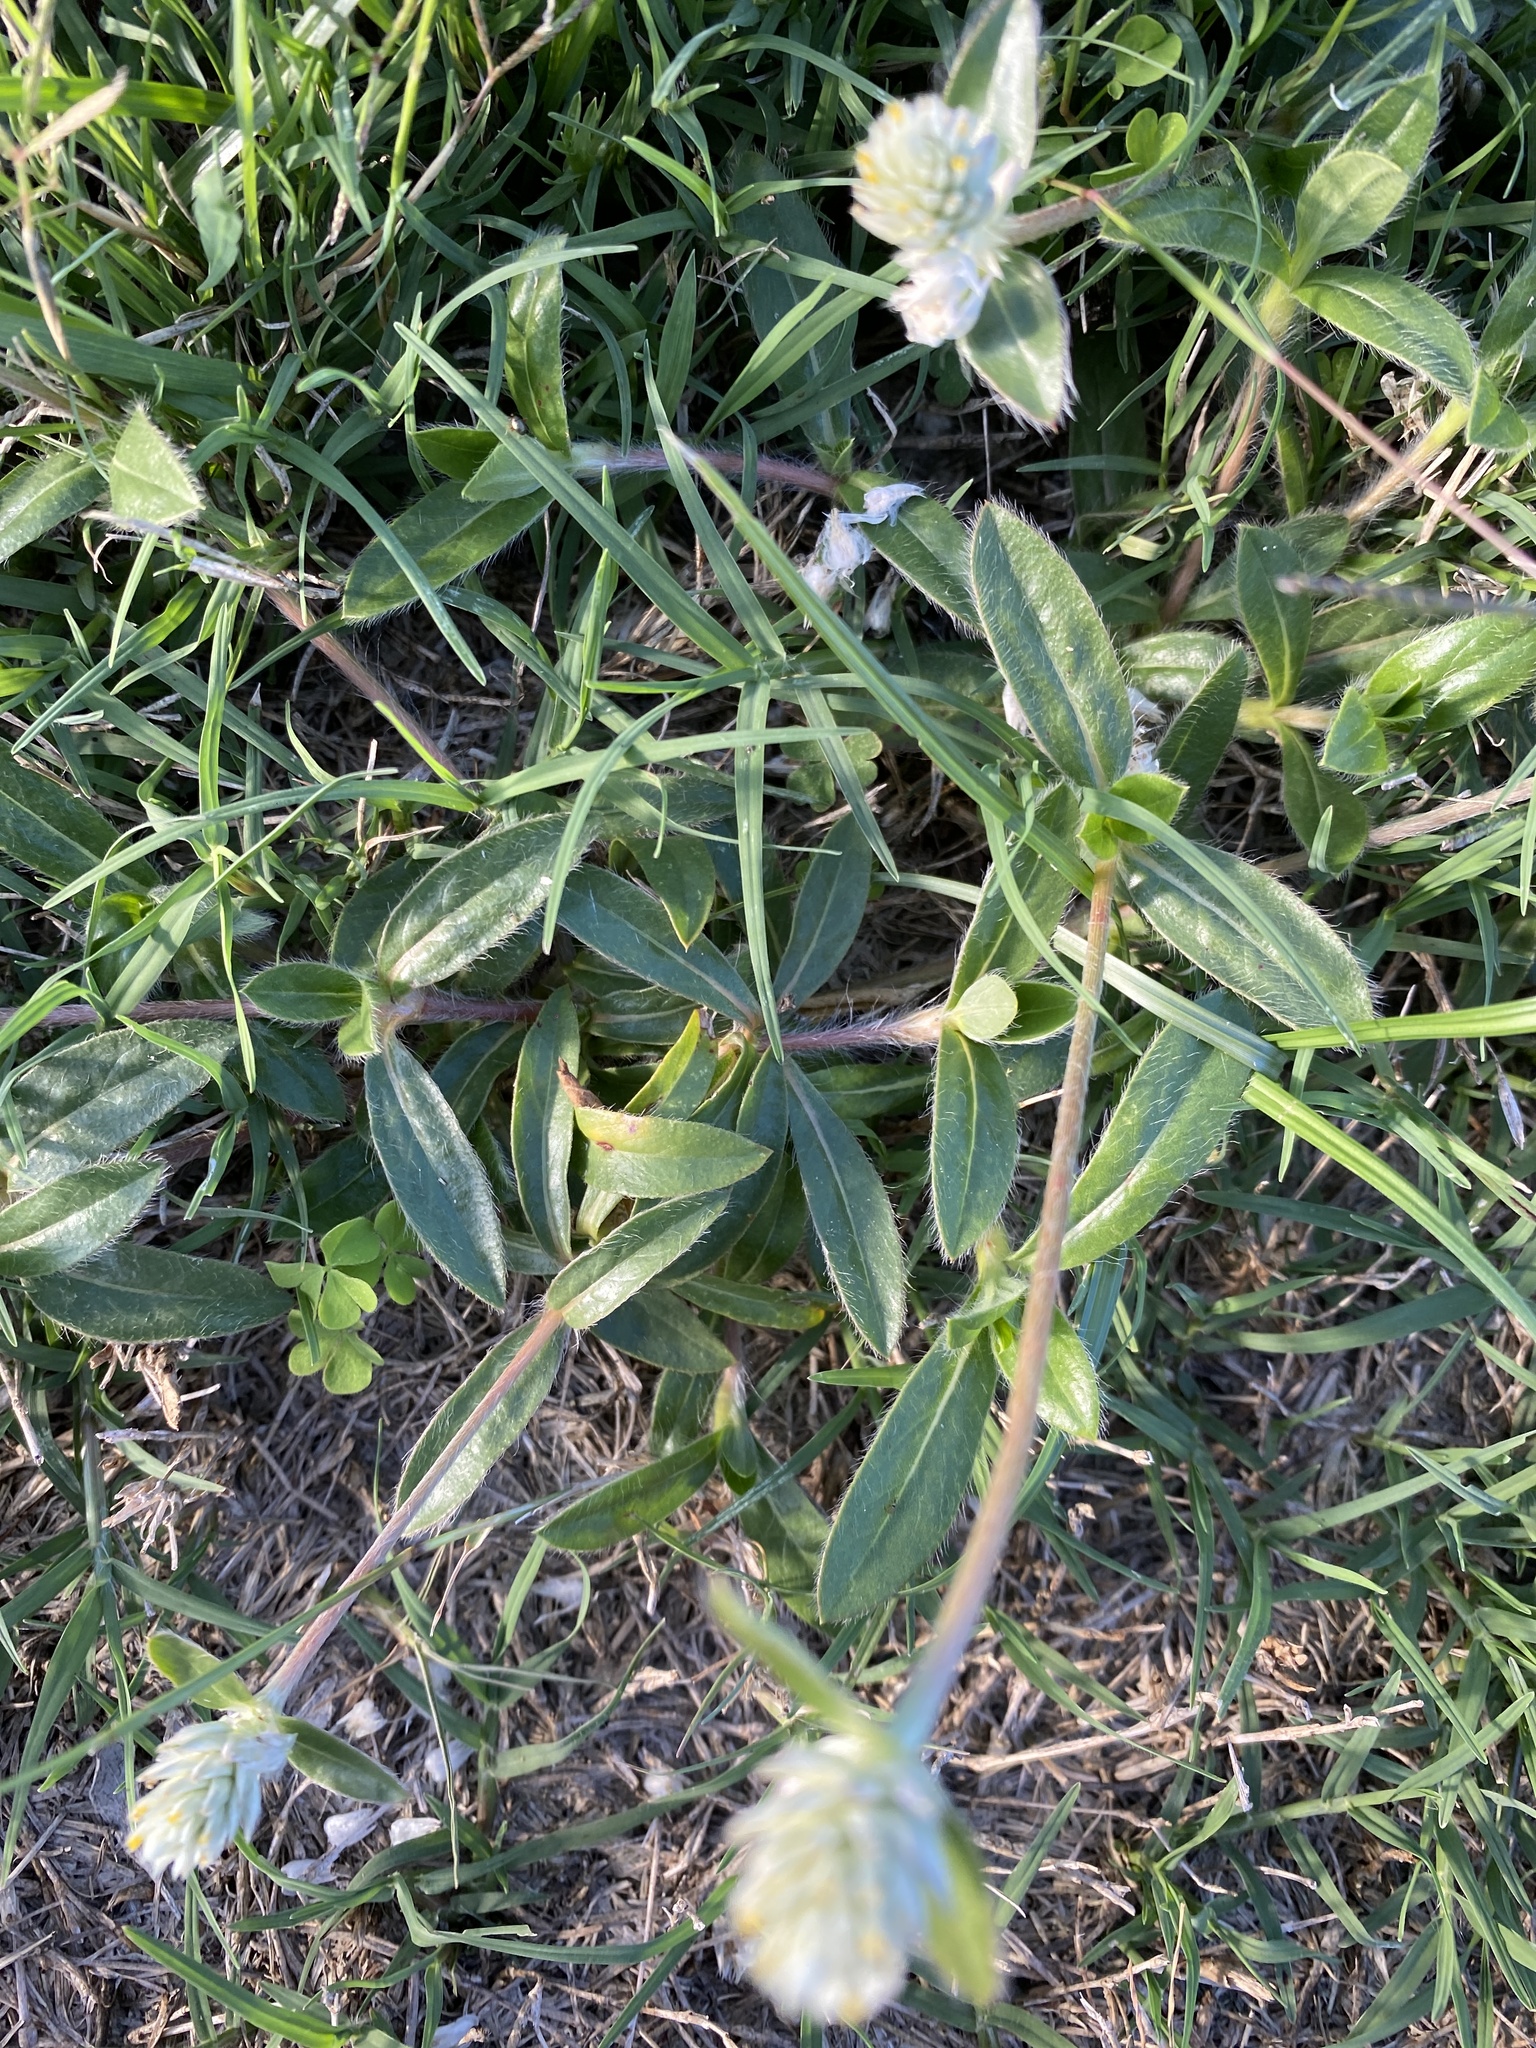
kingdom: Plantae
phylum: Tracheophyta
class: Magnoliopsida
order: Caryophyllales
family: Amaranthaceae
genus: Gomphrena
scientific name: Gomphrena celosioides
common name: Gomphrena-weed
